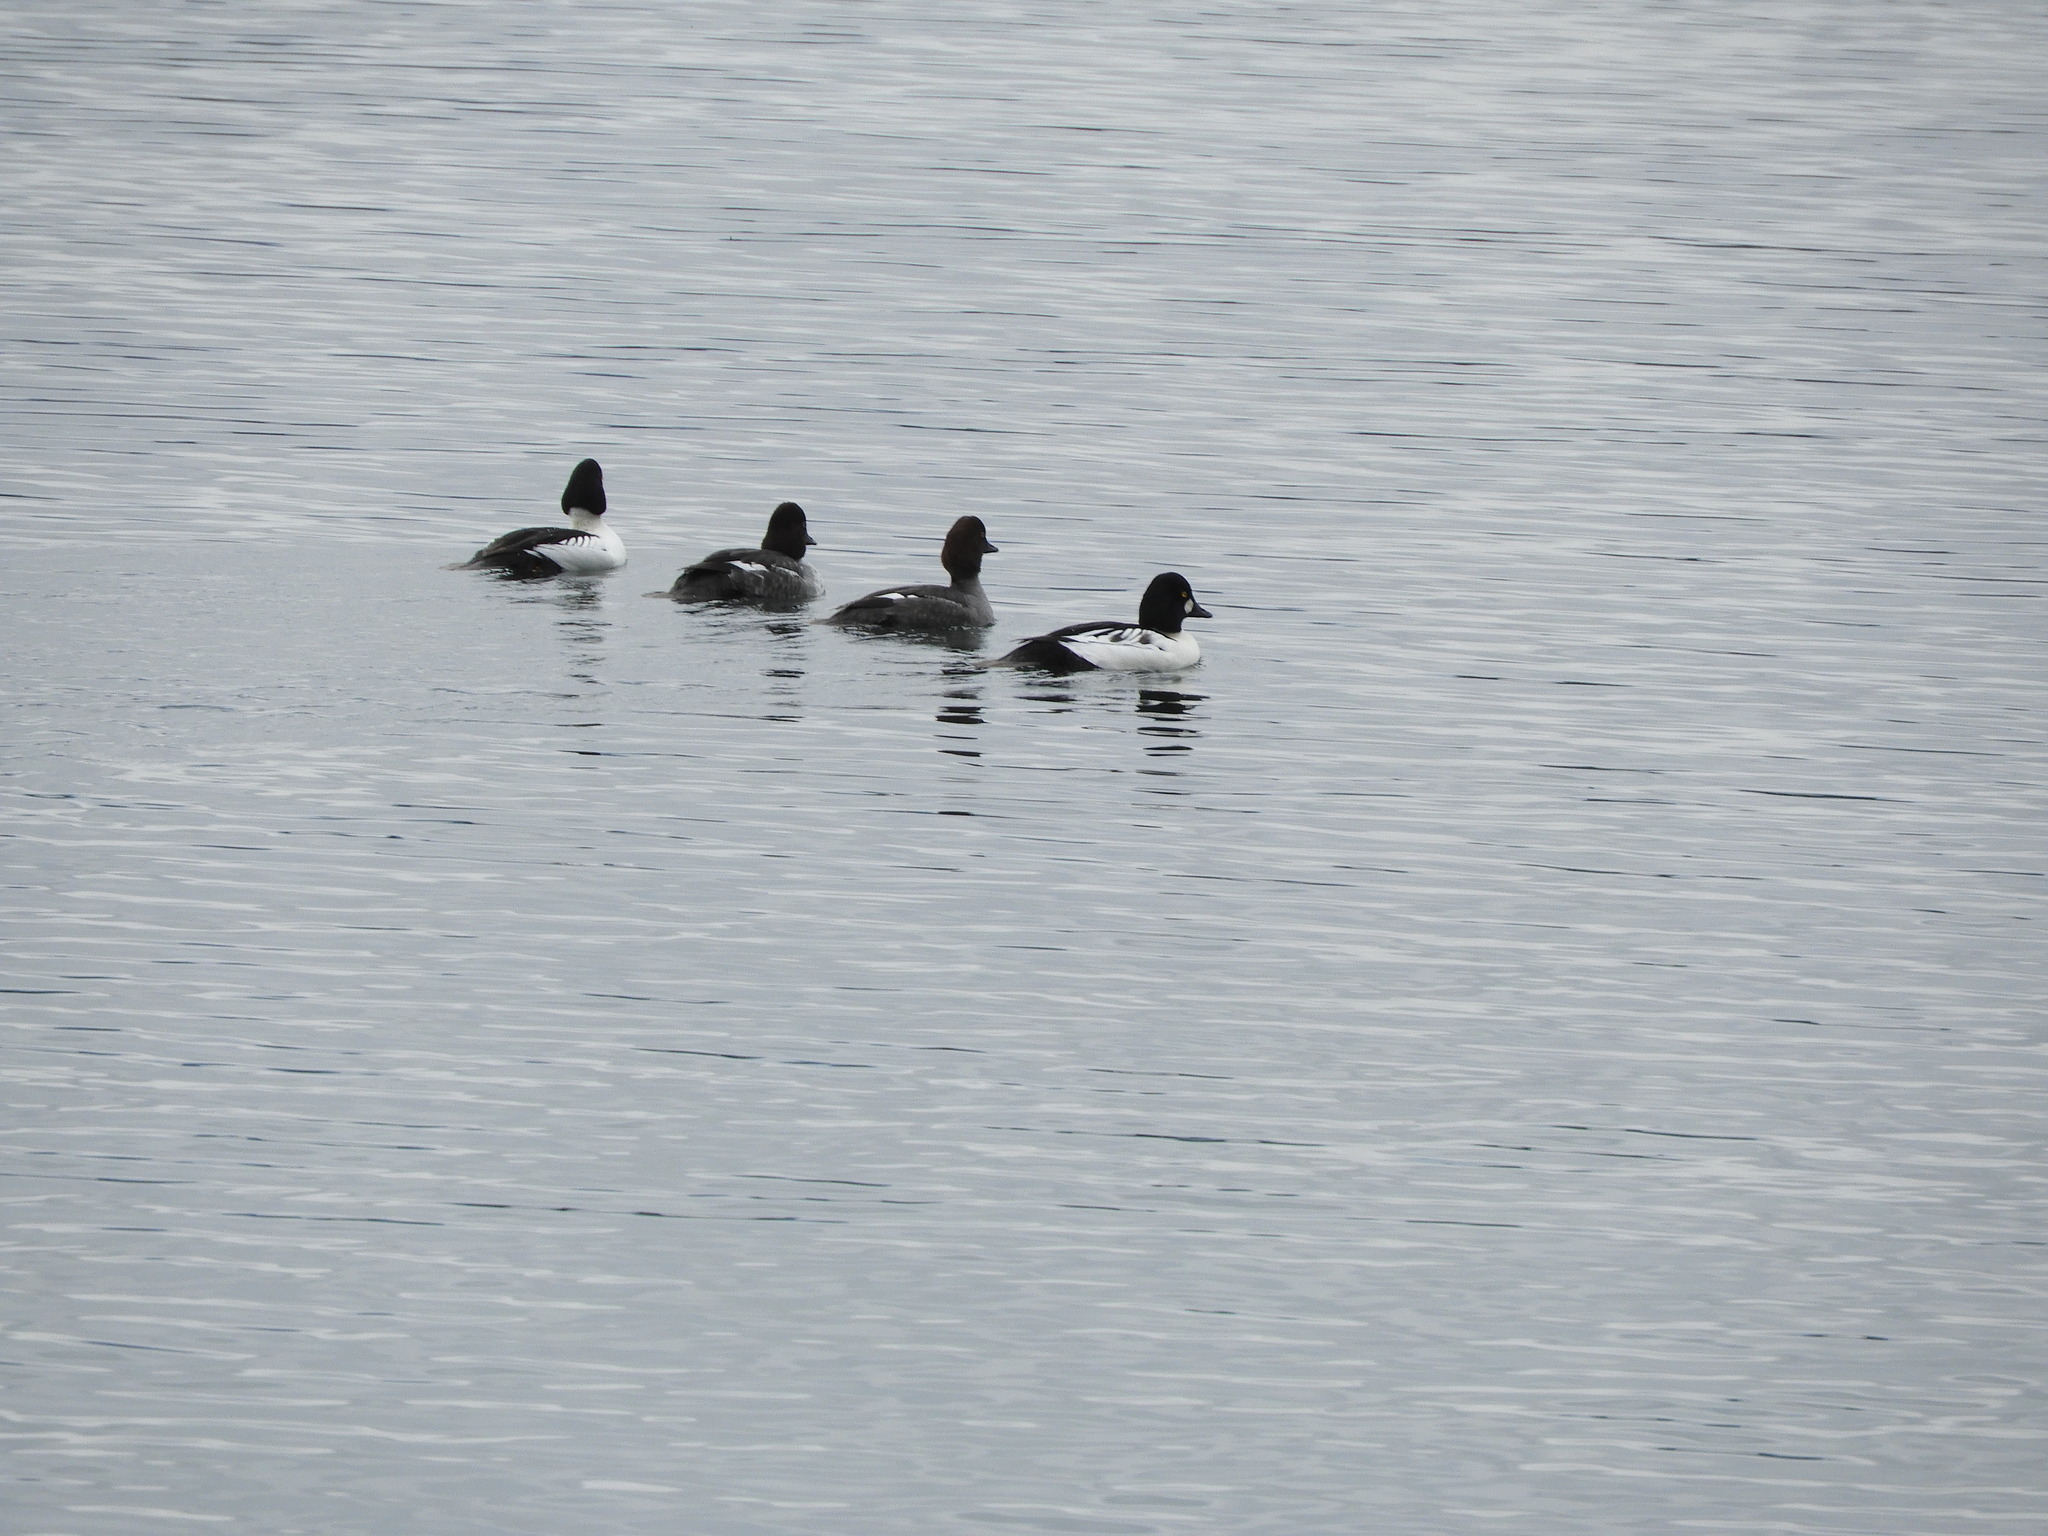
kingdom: Animalia
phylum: Chordata
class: Aves
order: Anseriformes
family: Anatidae
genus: Bucephala
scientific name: Bucephala clangula
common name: Common goldeneye
